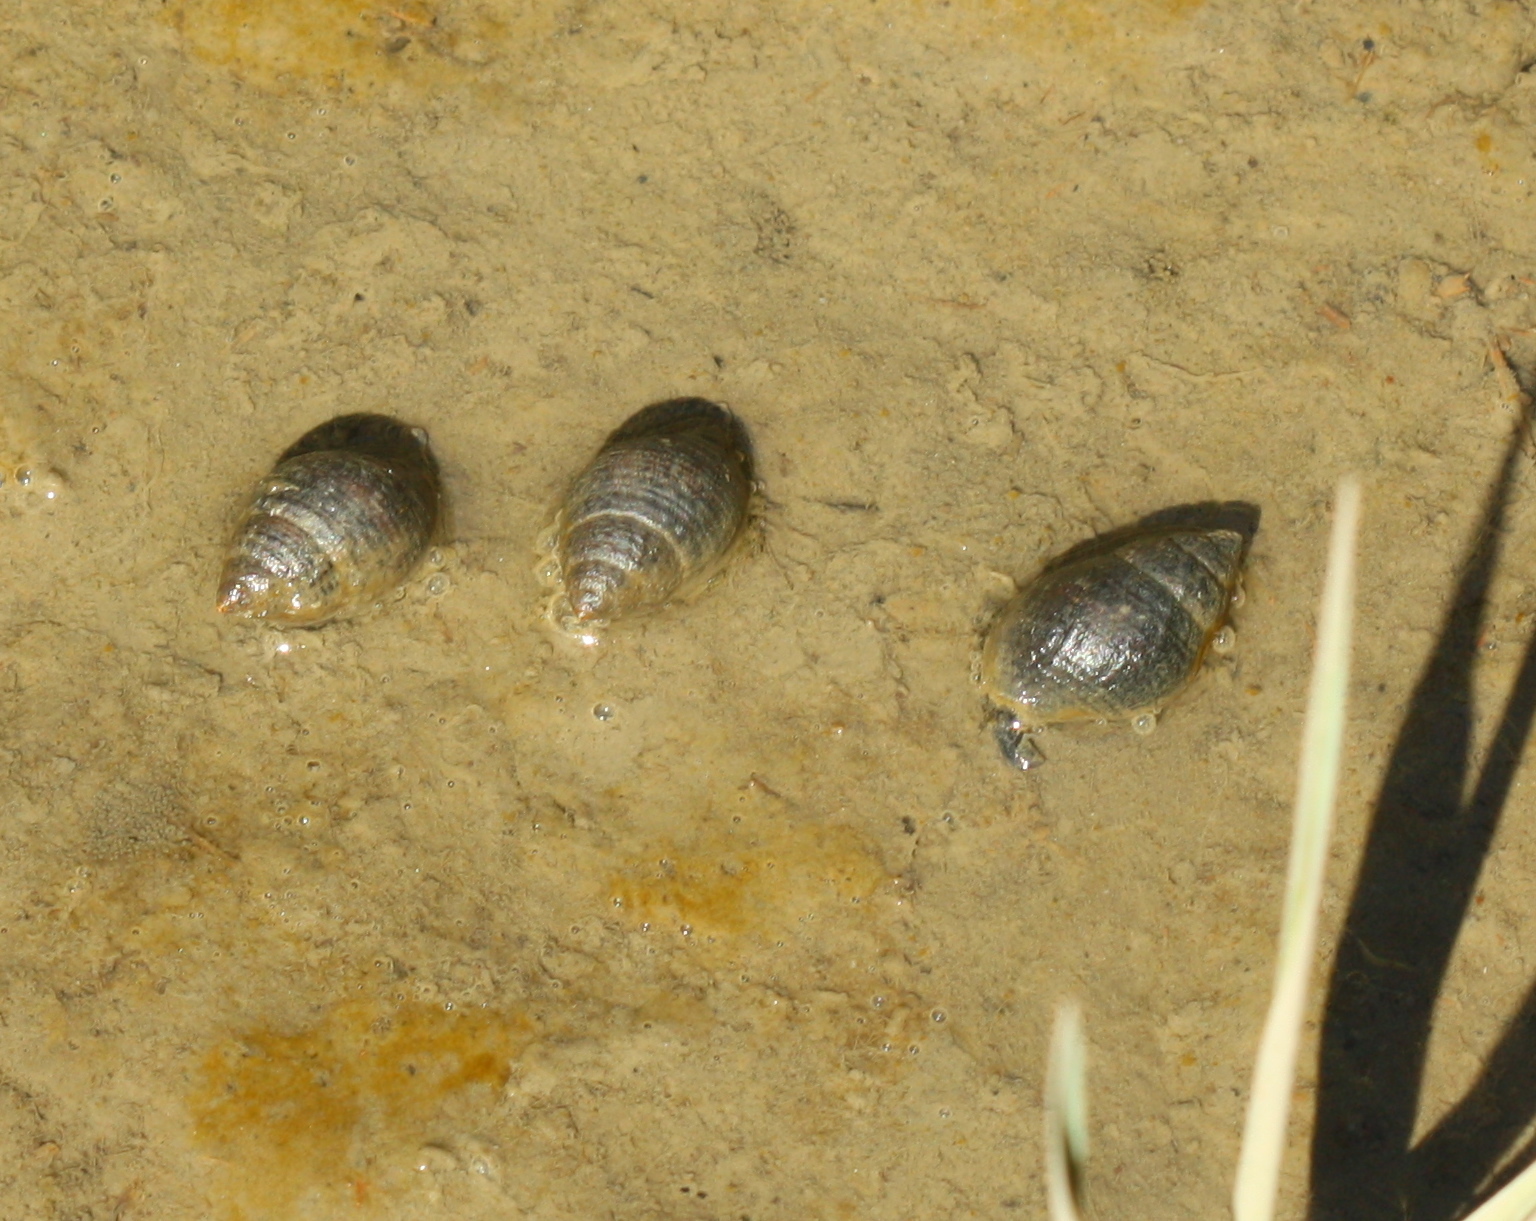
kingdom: Animalia
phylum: Mollusca
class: Gastropoda
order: Neogastropoda
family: Nassariidae
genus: Ilyanassa
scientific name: Ilyanassa obsoleta
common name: Eastern mudsnail
